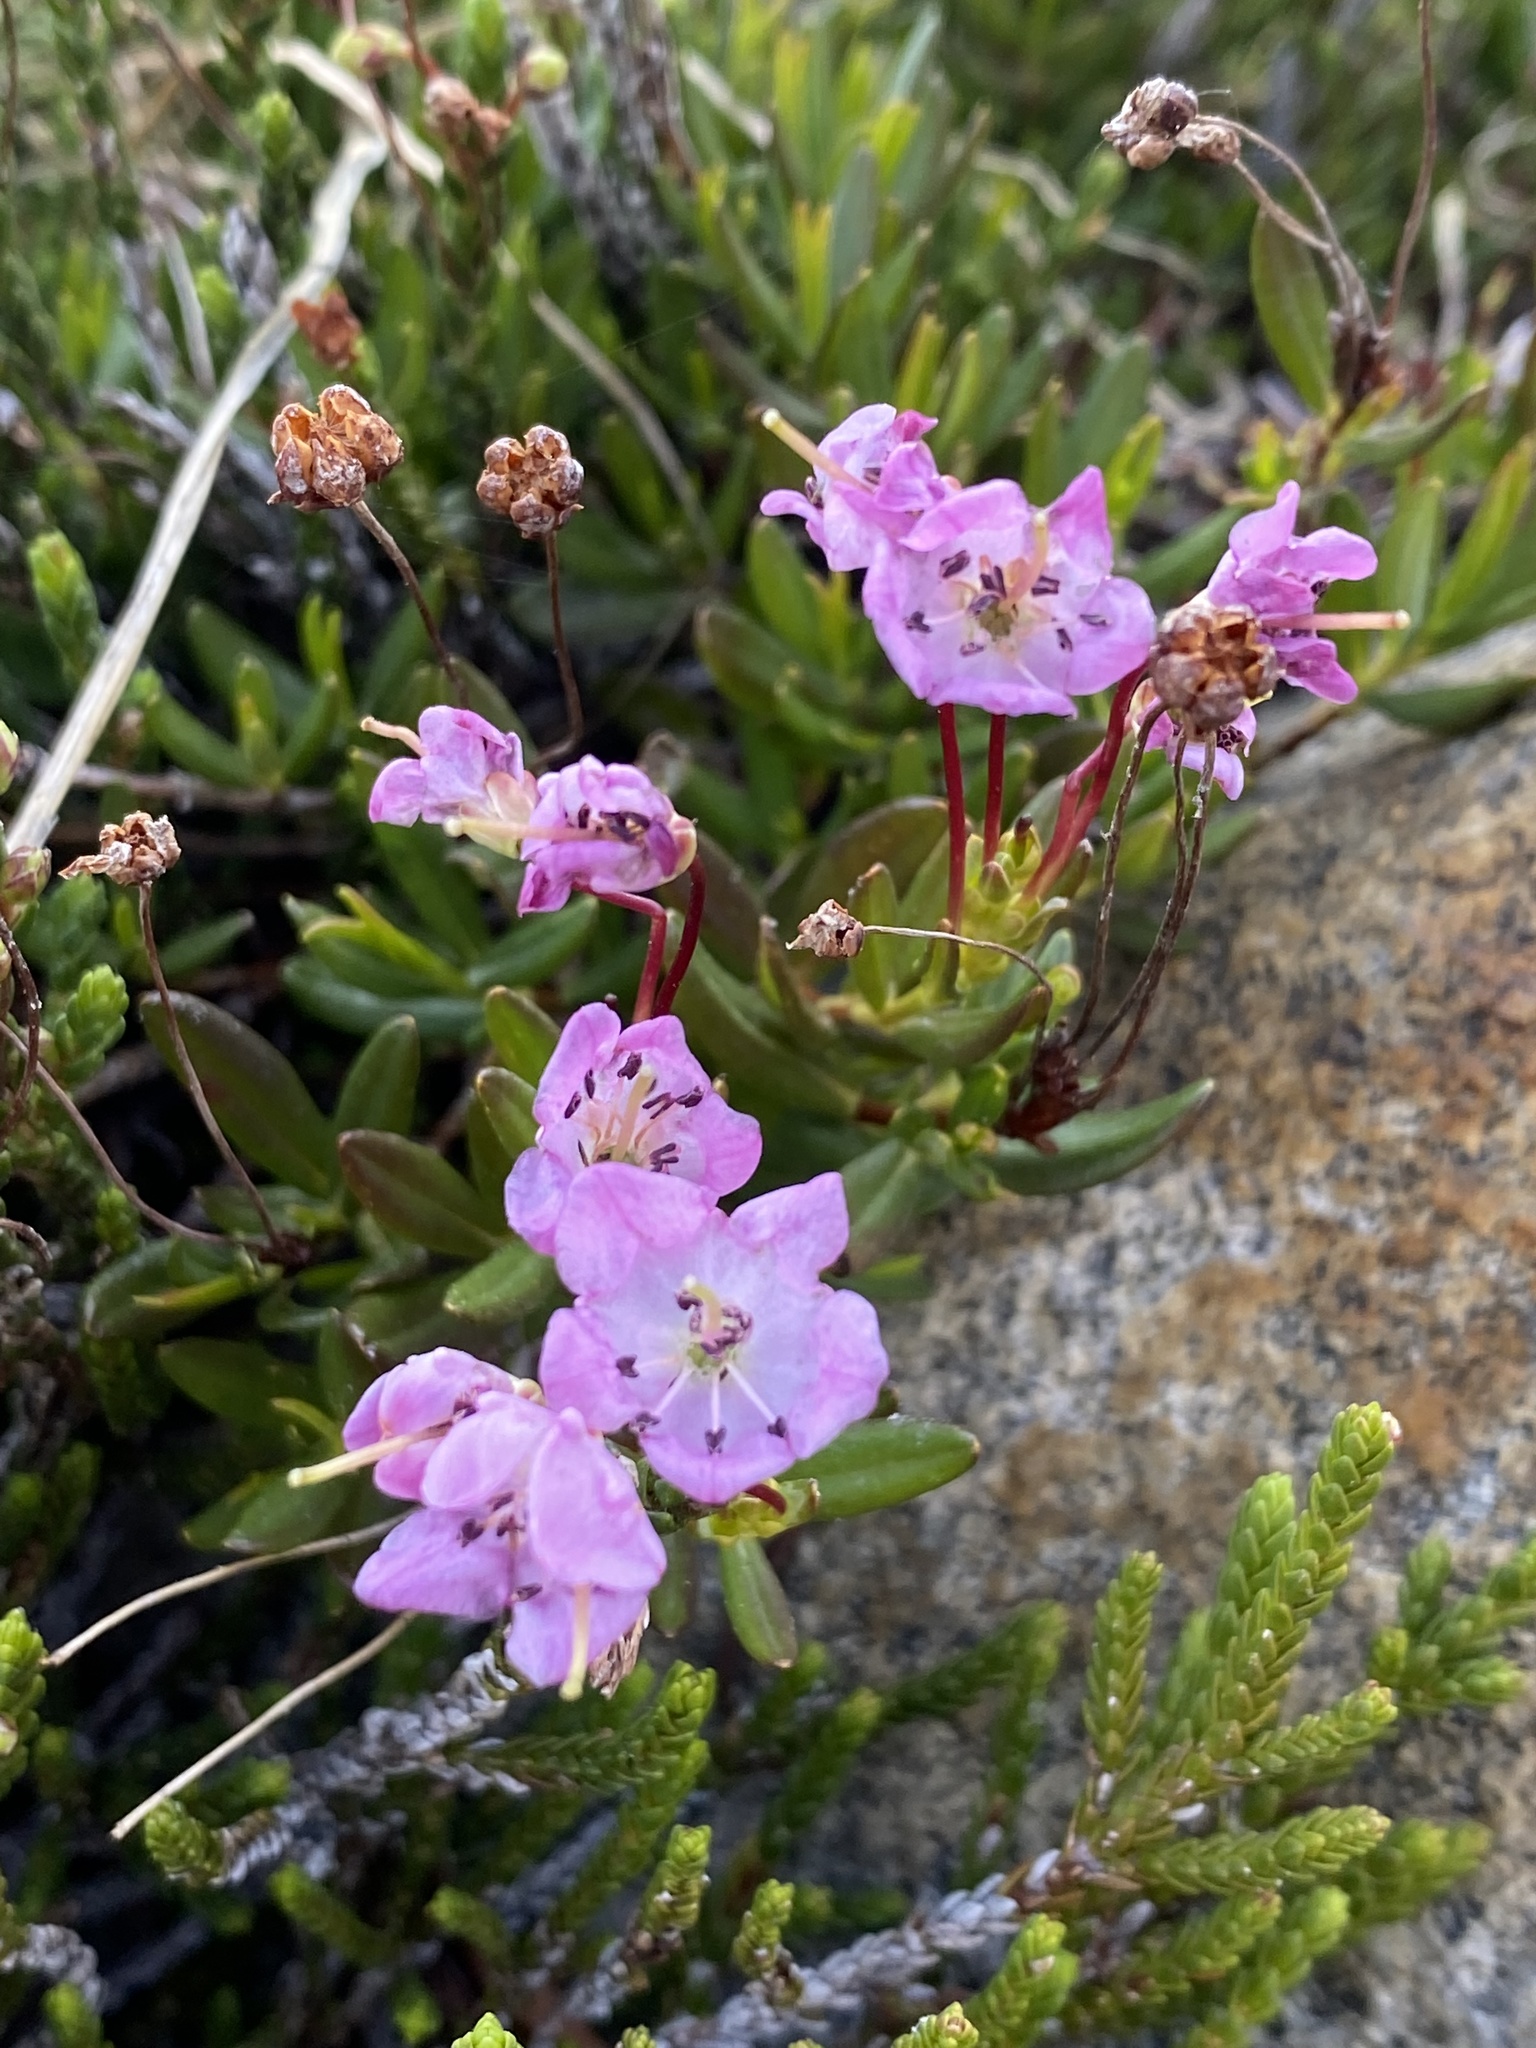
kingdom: Plantae
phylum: Tracheophyta
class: Magnoliopsida
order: Ericales
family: Ericaceae
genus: Kalmia
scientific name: Kalmia microphylla
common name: Alpine bog laurel
